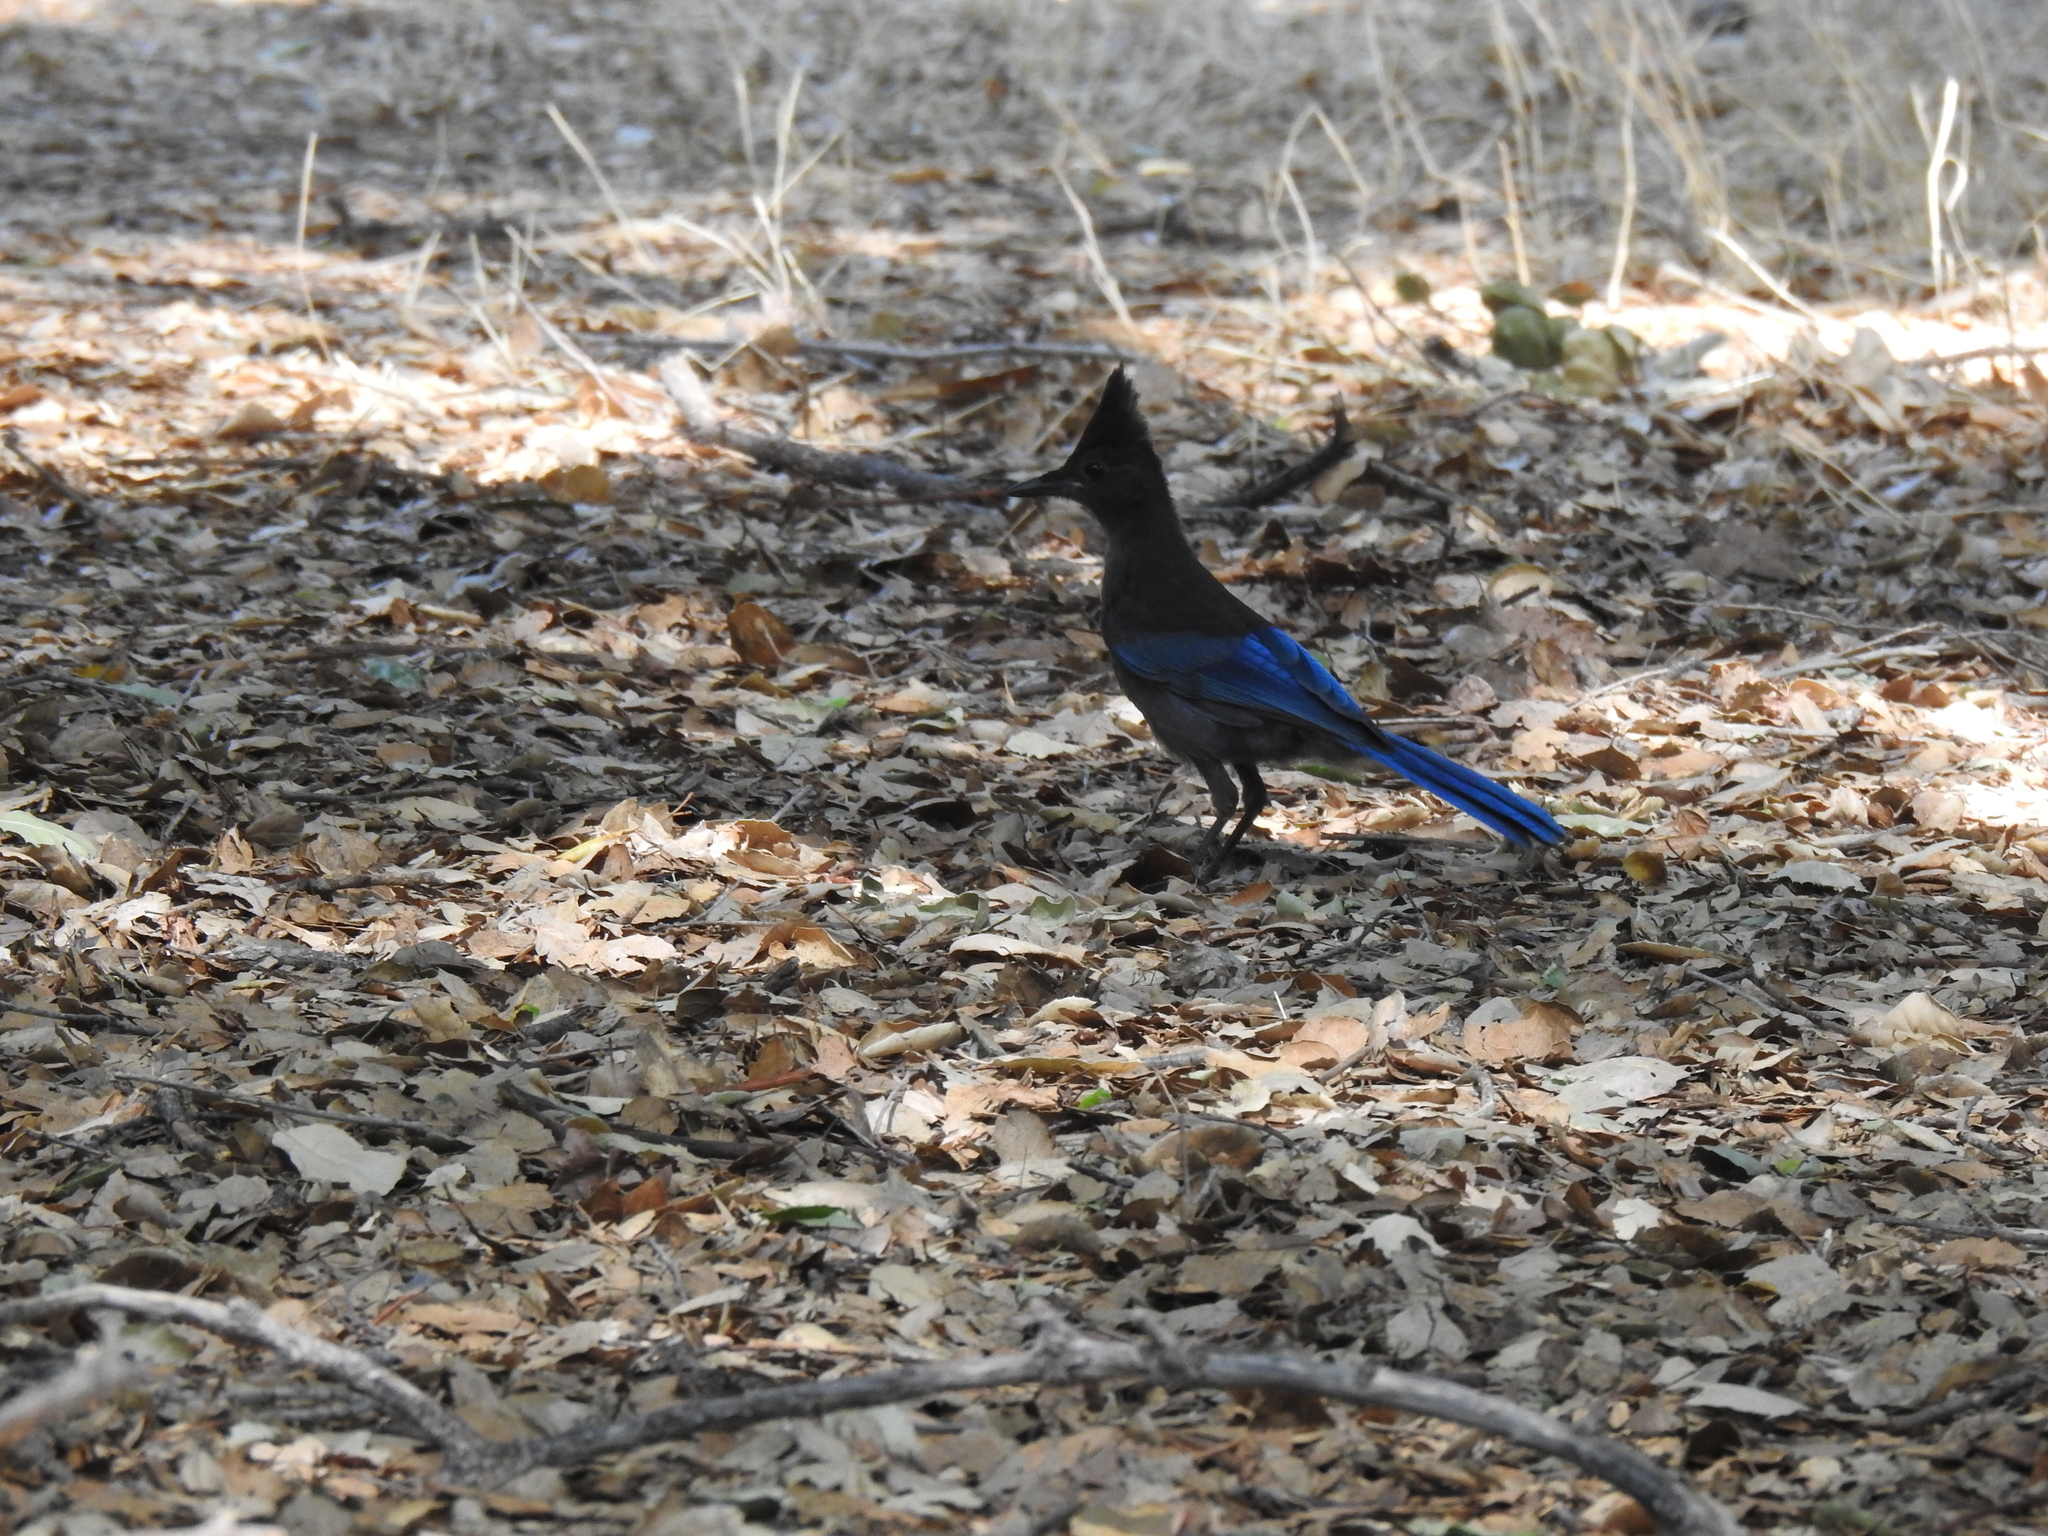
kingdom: Animalia
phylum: Chordata
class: Aves
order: Passeriformes
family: Corvidae
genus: Cyanocitta
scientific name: Cyanocitta stelleri
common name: Steller's jay
